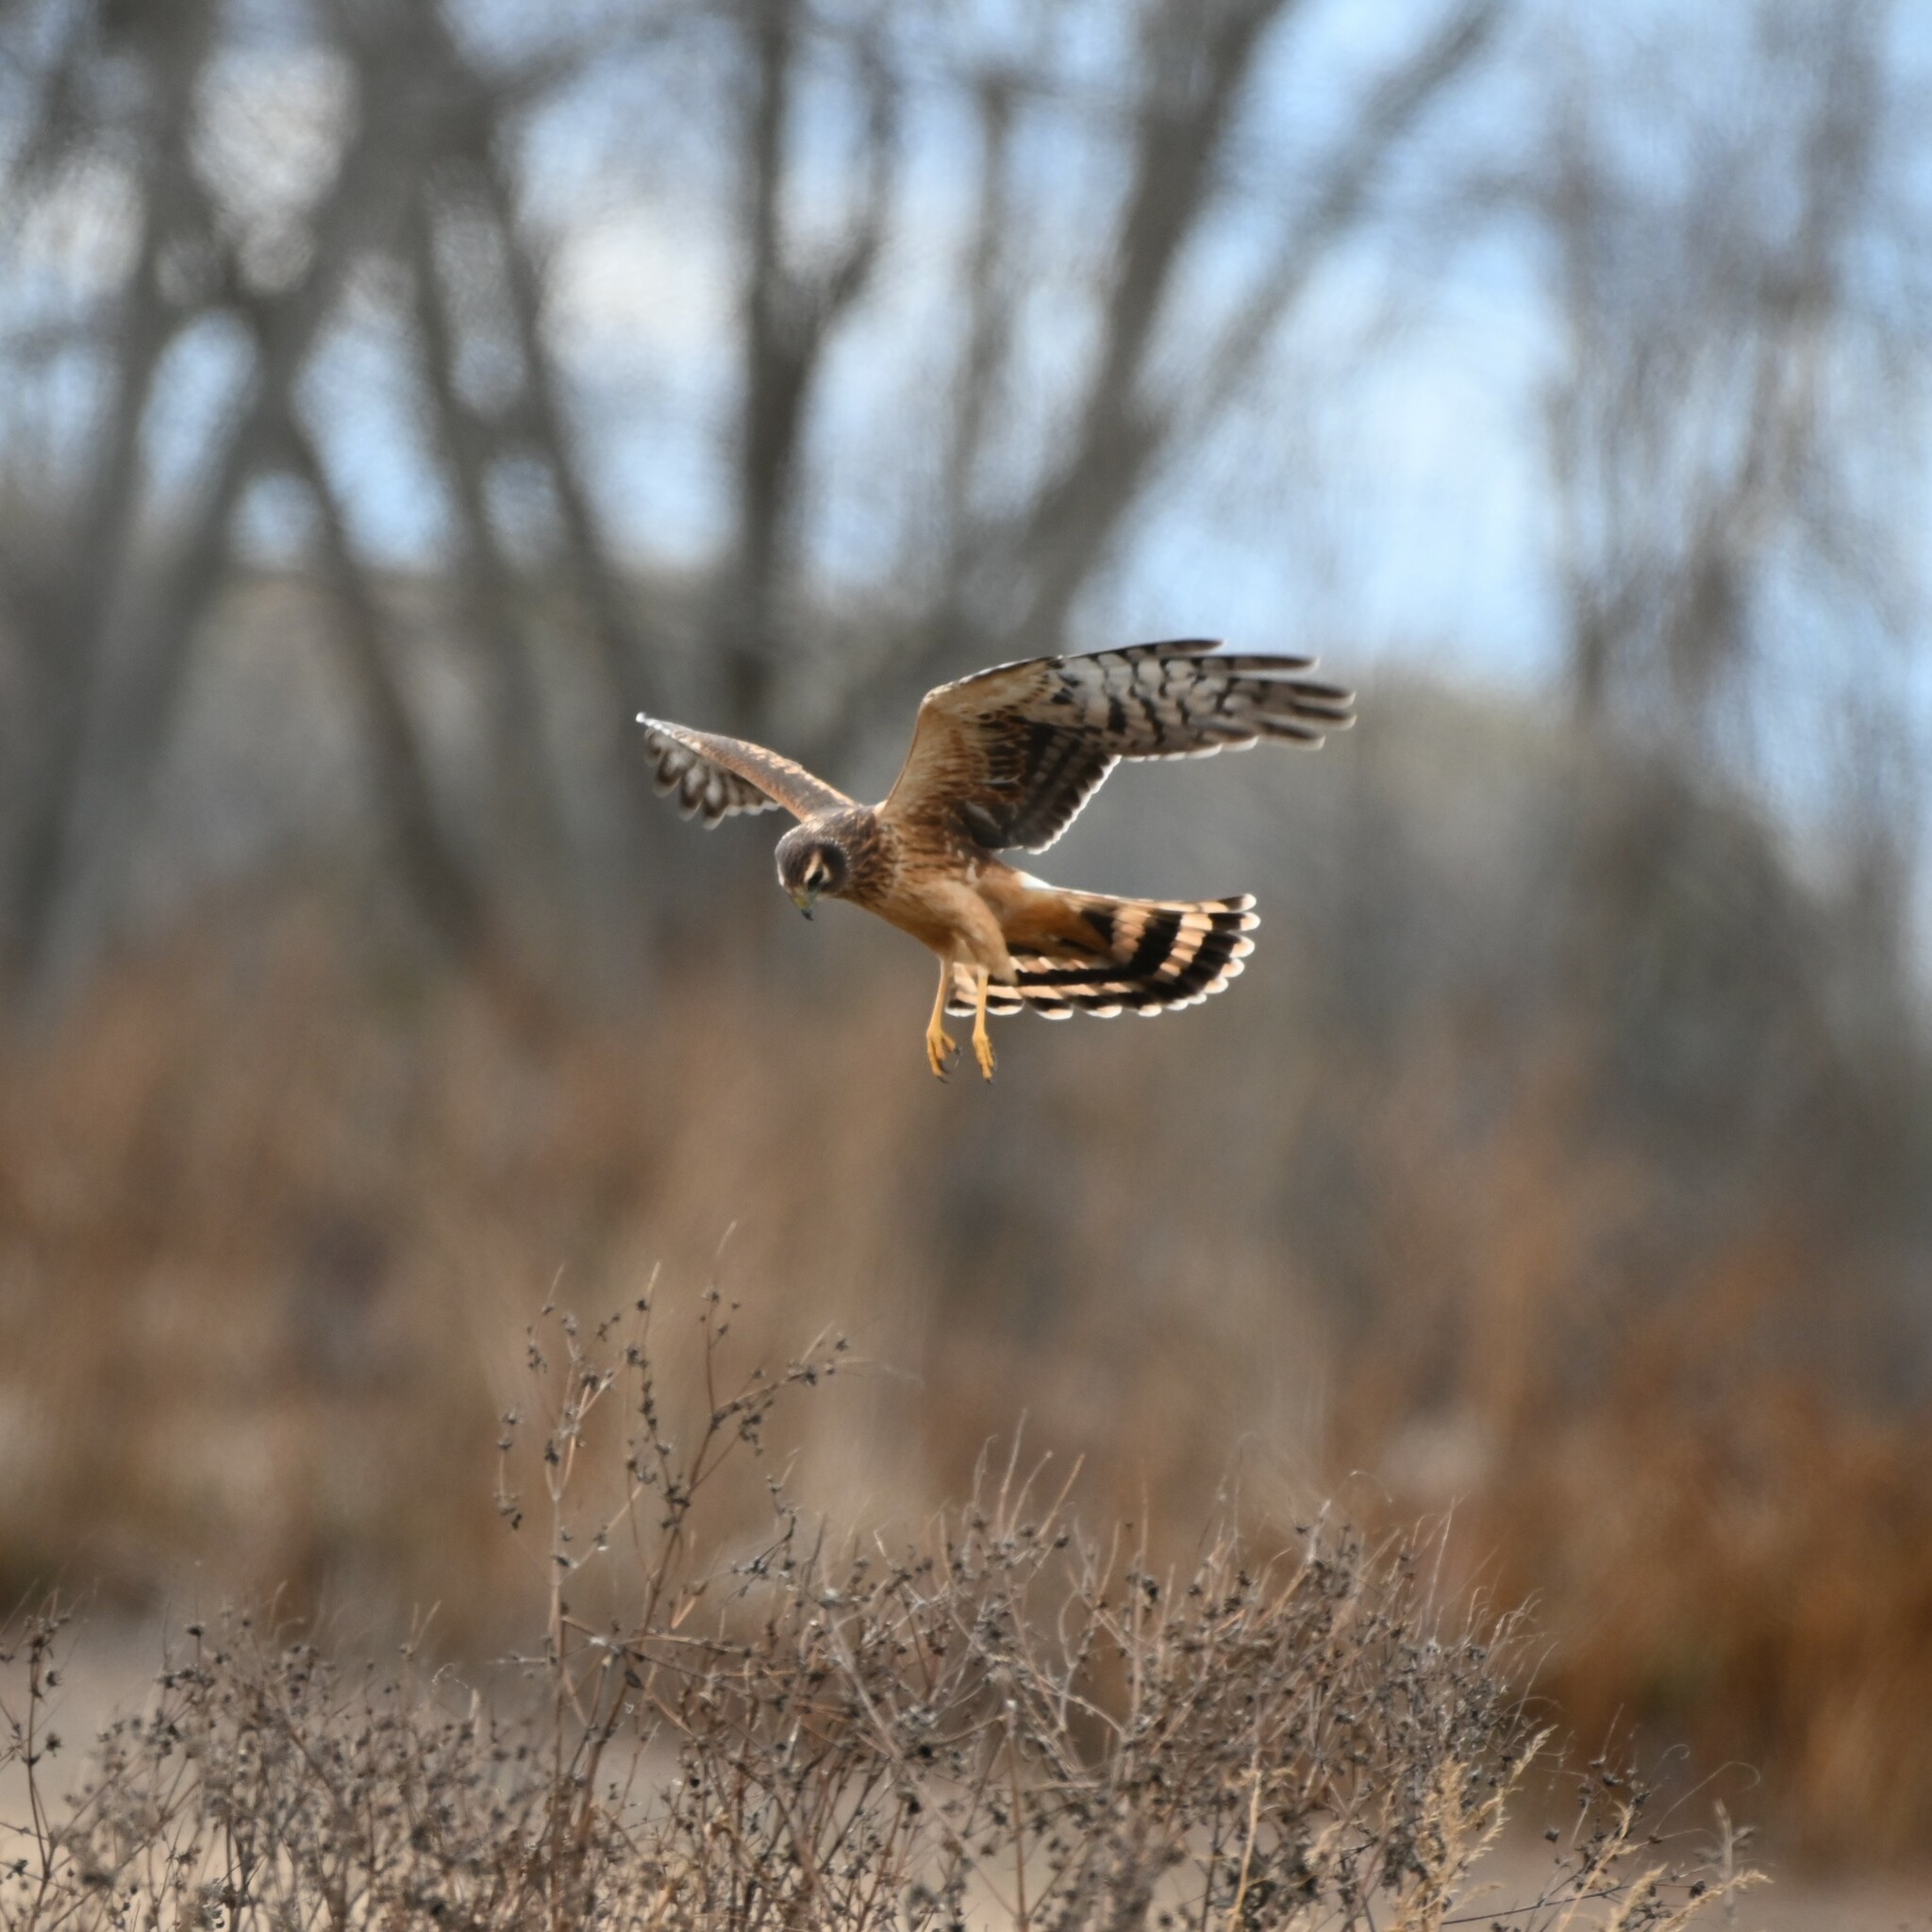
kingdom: Animalia
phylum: Chordata
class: Aves
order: Accipitriformes
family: Accipitridae
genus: Circus
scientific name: Circus cyaneus
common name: Hen harrier
